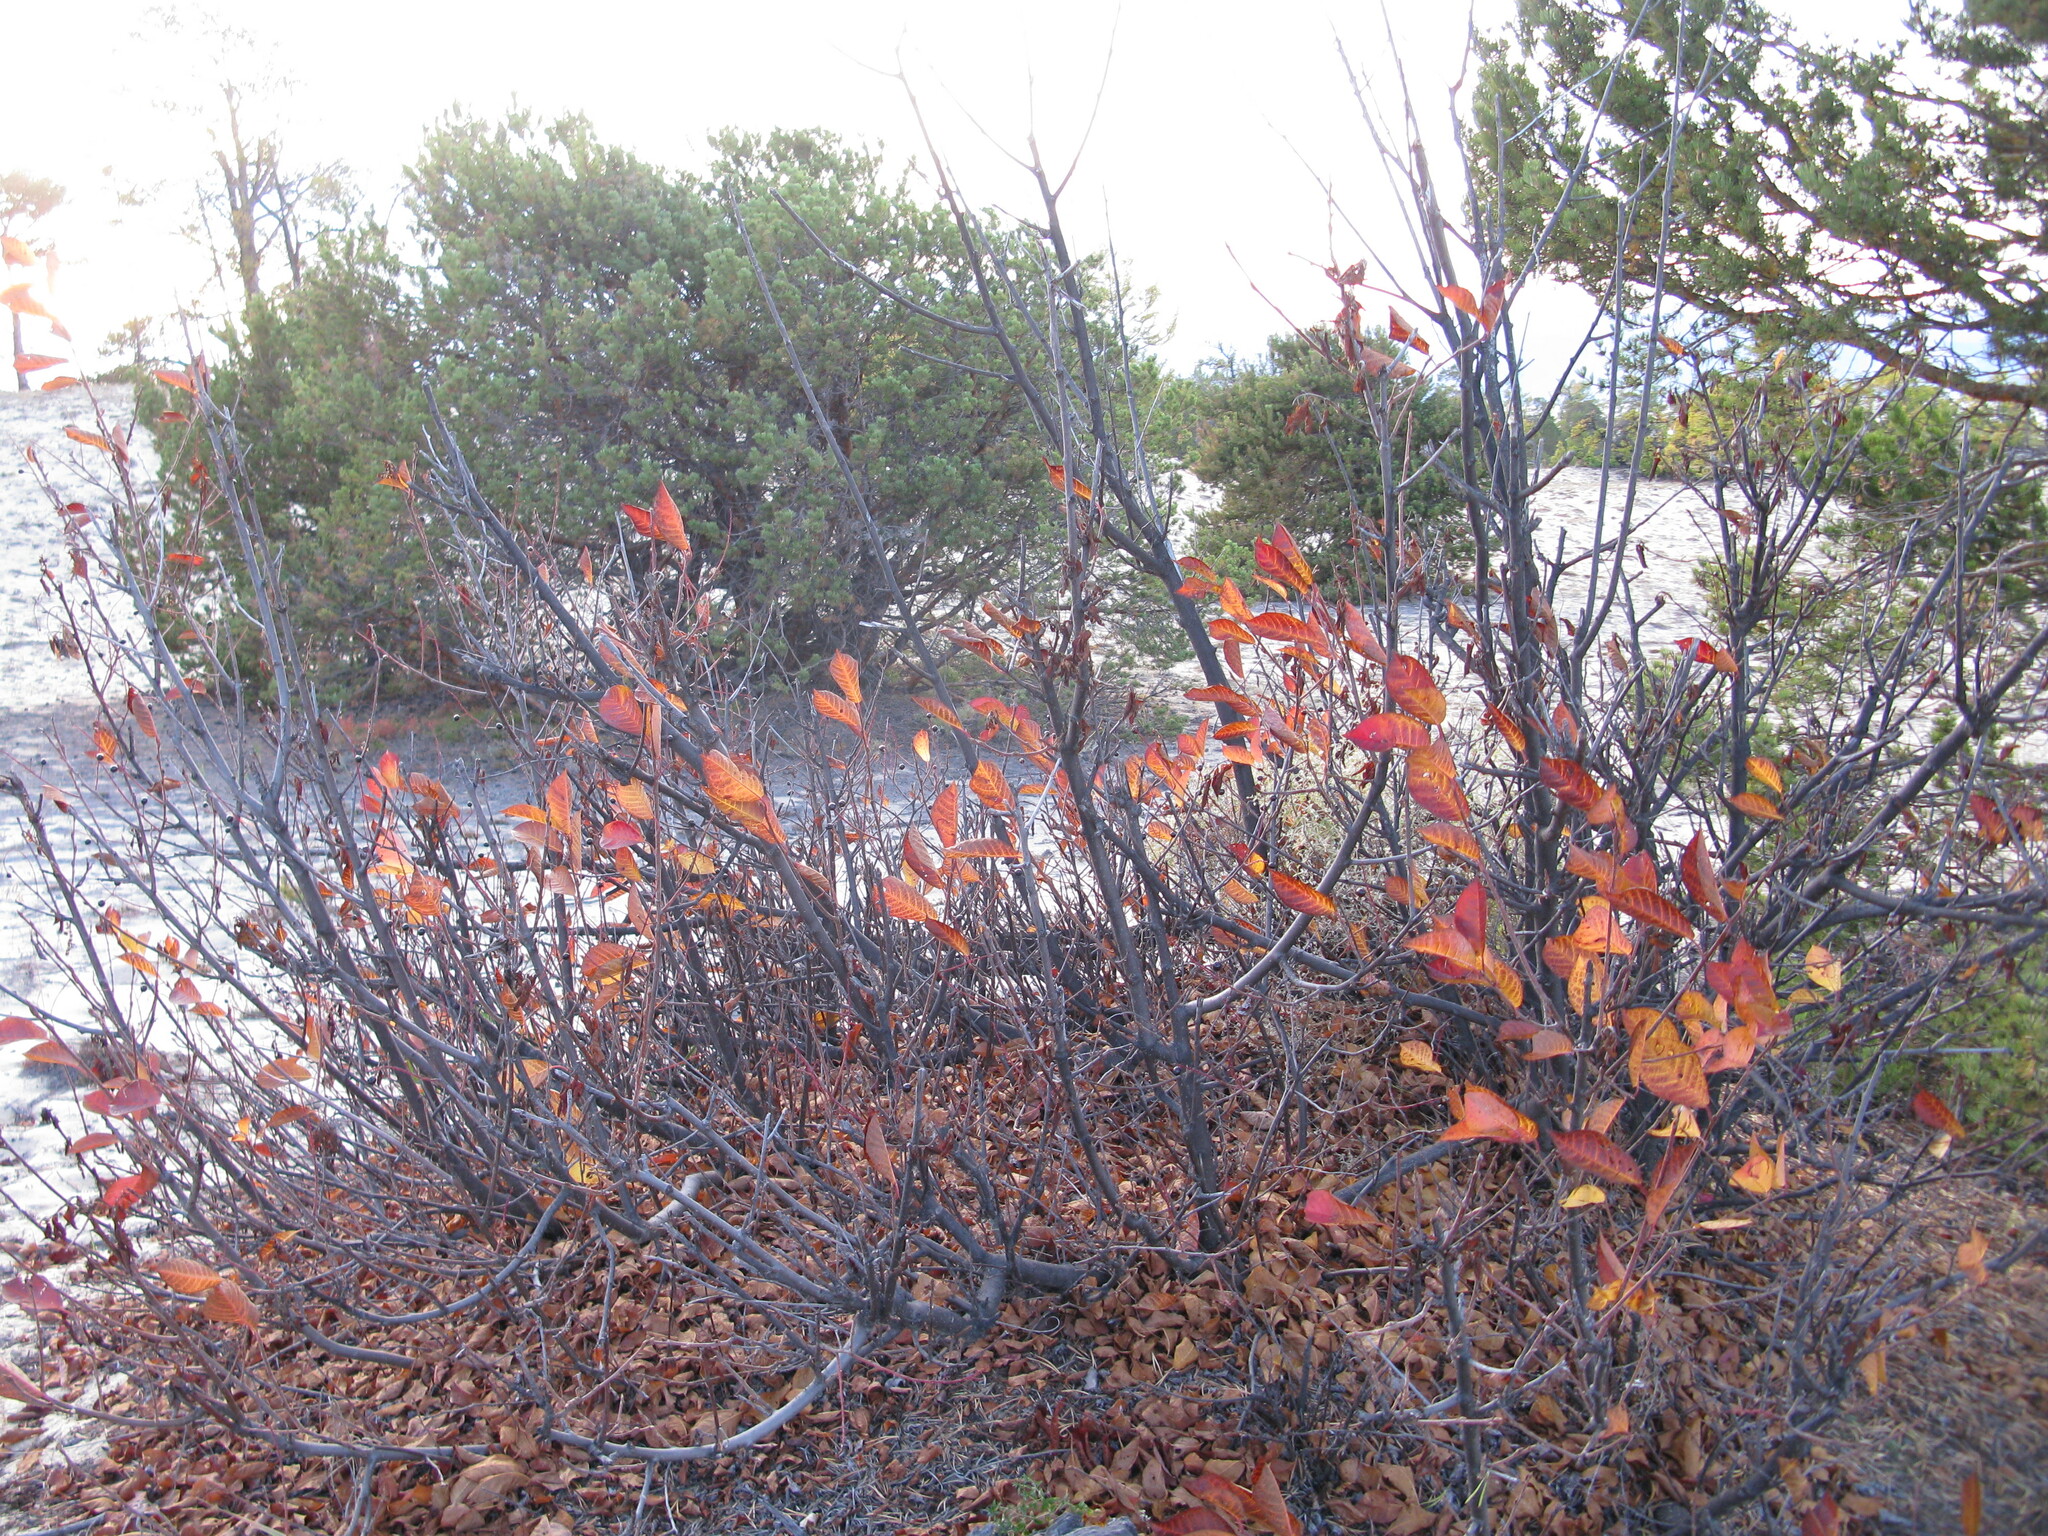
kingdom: Plantae
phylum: Tracheophyta
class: Magnoliopsida
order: Rosales
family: Rosaceae
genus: Prunus
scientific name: Prunus padus
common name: Bird cherry
